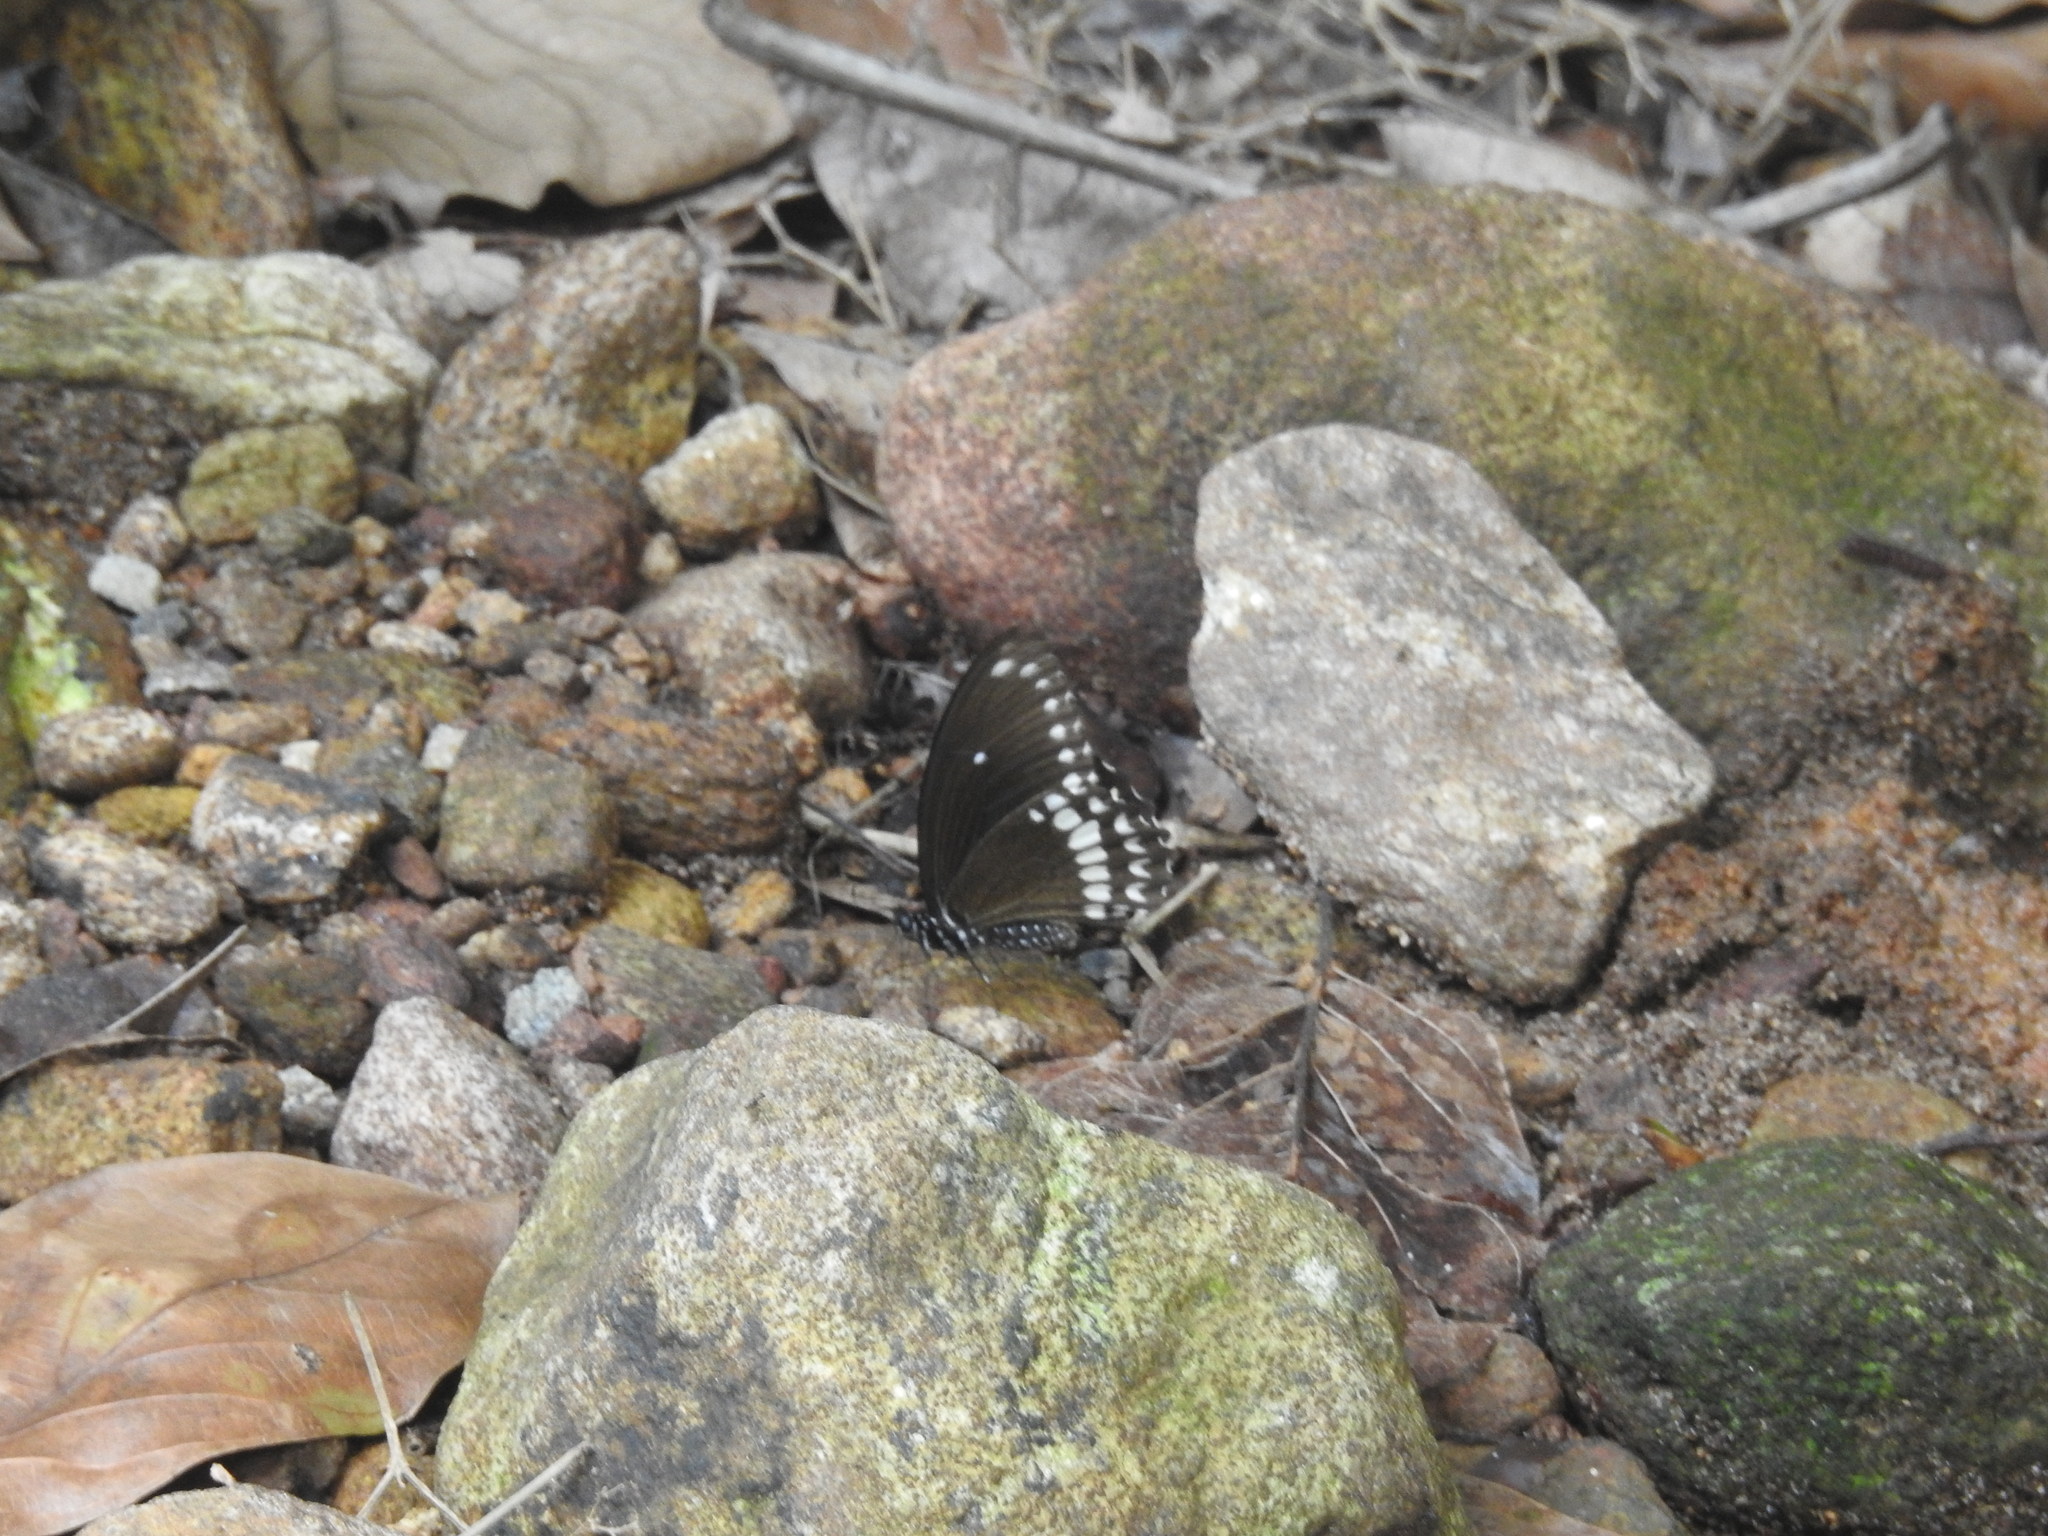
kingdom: Animalia
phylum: Arthropoda
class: Insecta
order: Lepidoptera
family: Papilionidae
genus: Papilio
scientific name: Papilio dravidarum
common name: Malabar raven
